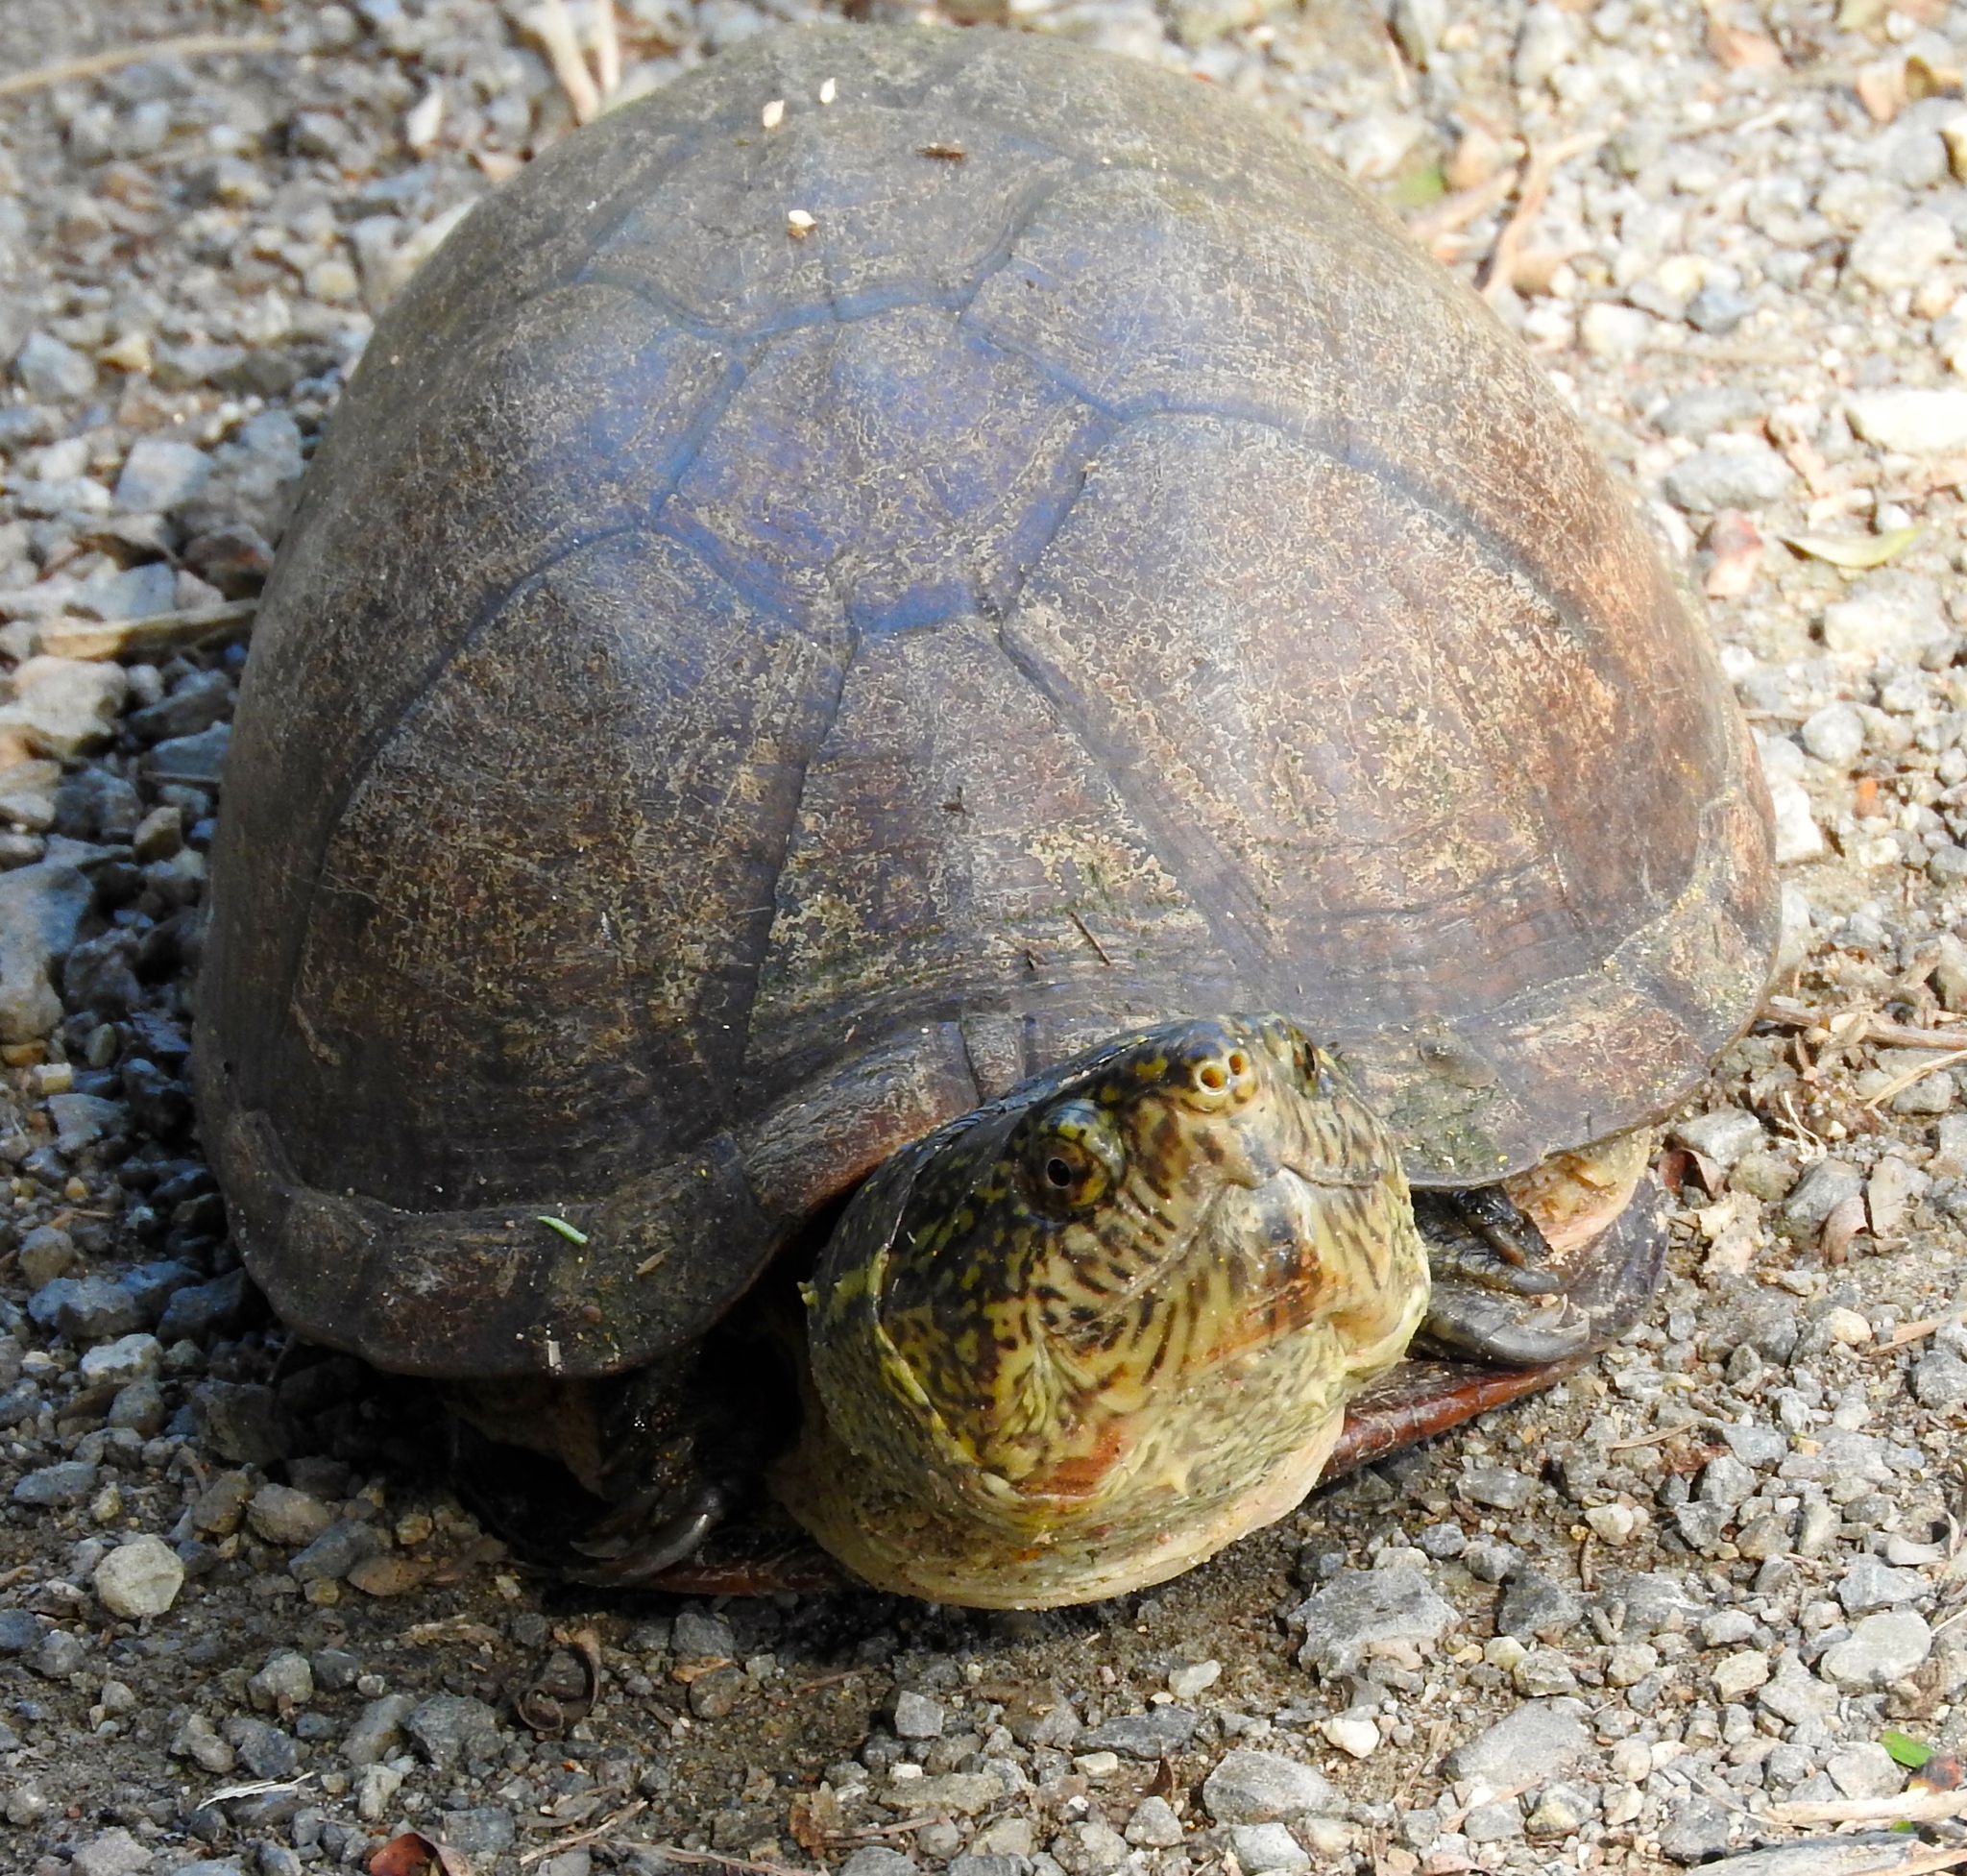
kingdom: Animalia
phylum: Chordata
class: Testudines
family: Kinosternidae
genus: Kinosternon
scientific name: Kinosternon integrum
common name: Mexican mud turtle
